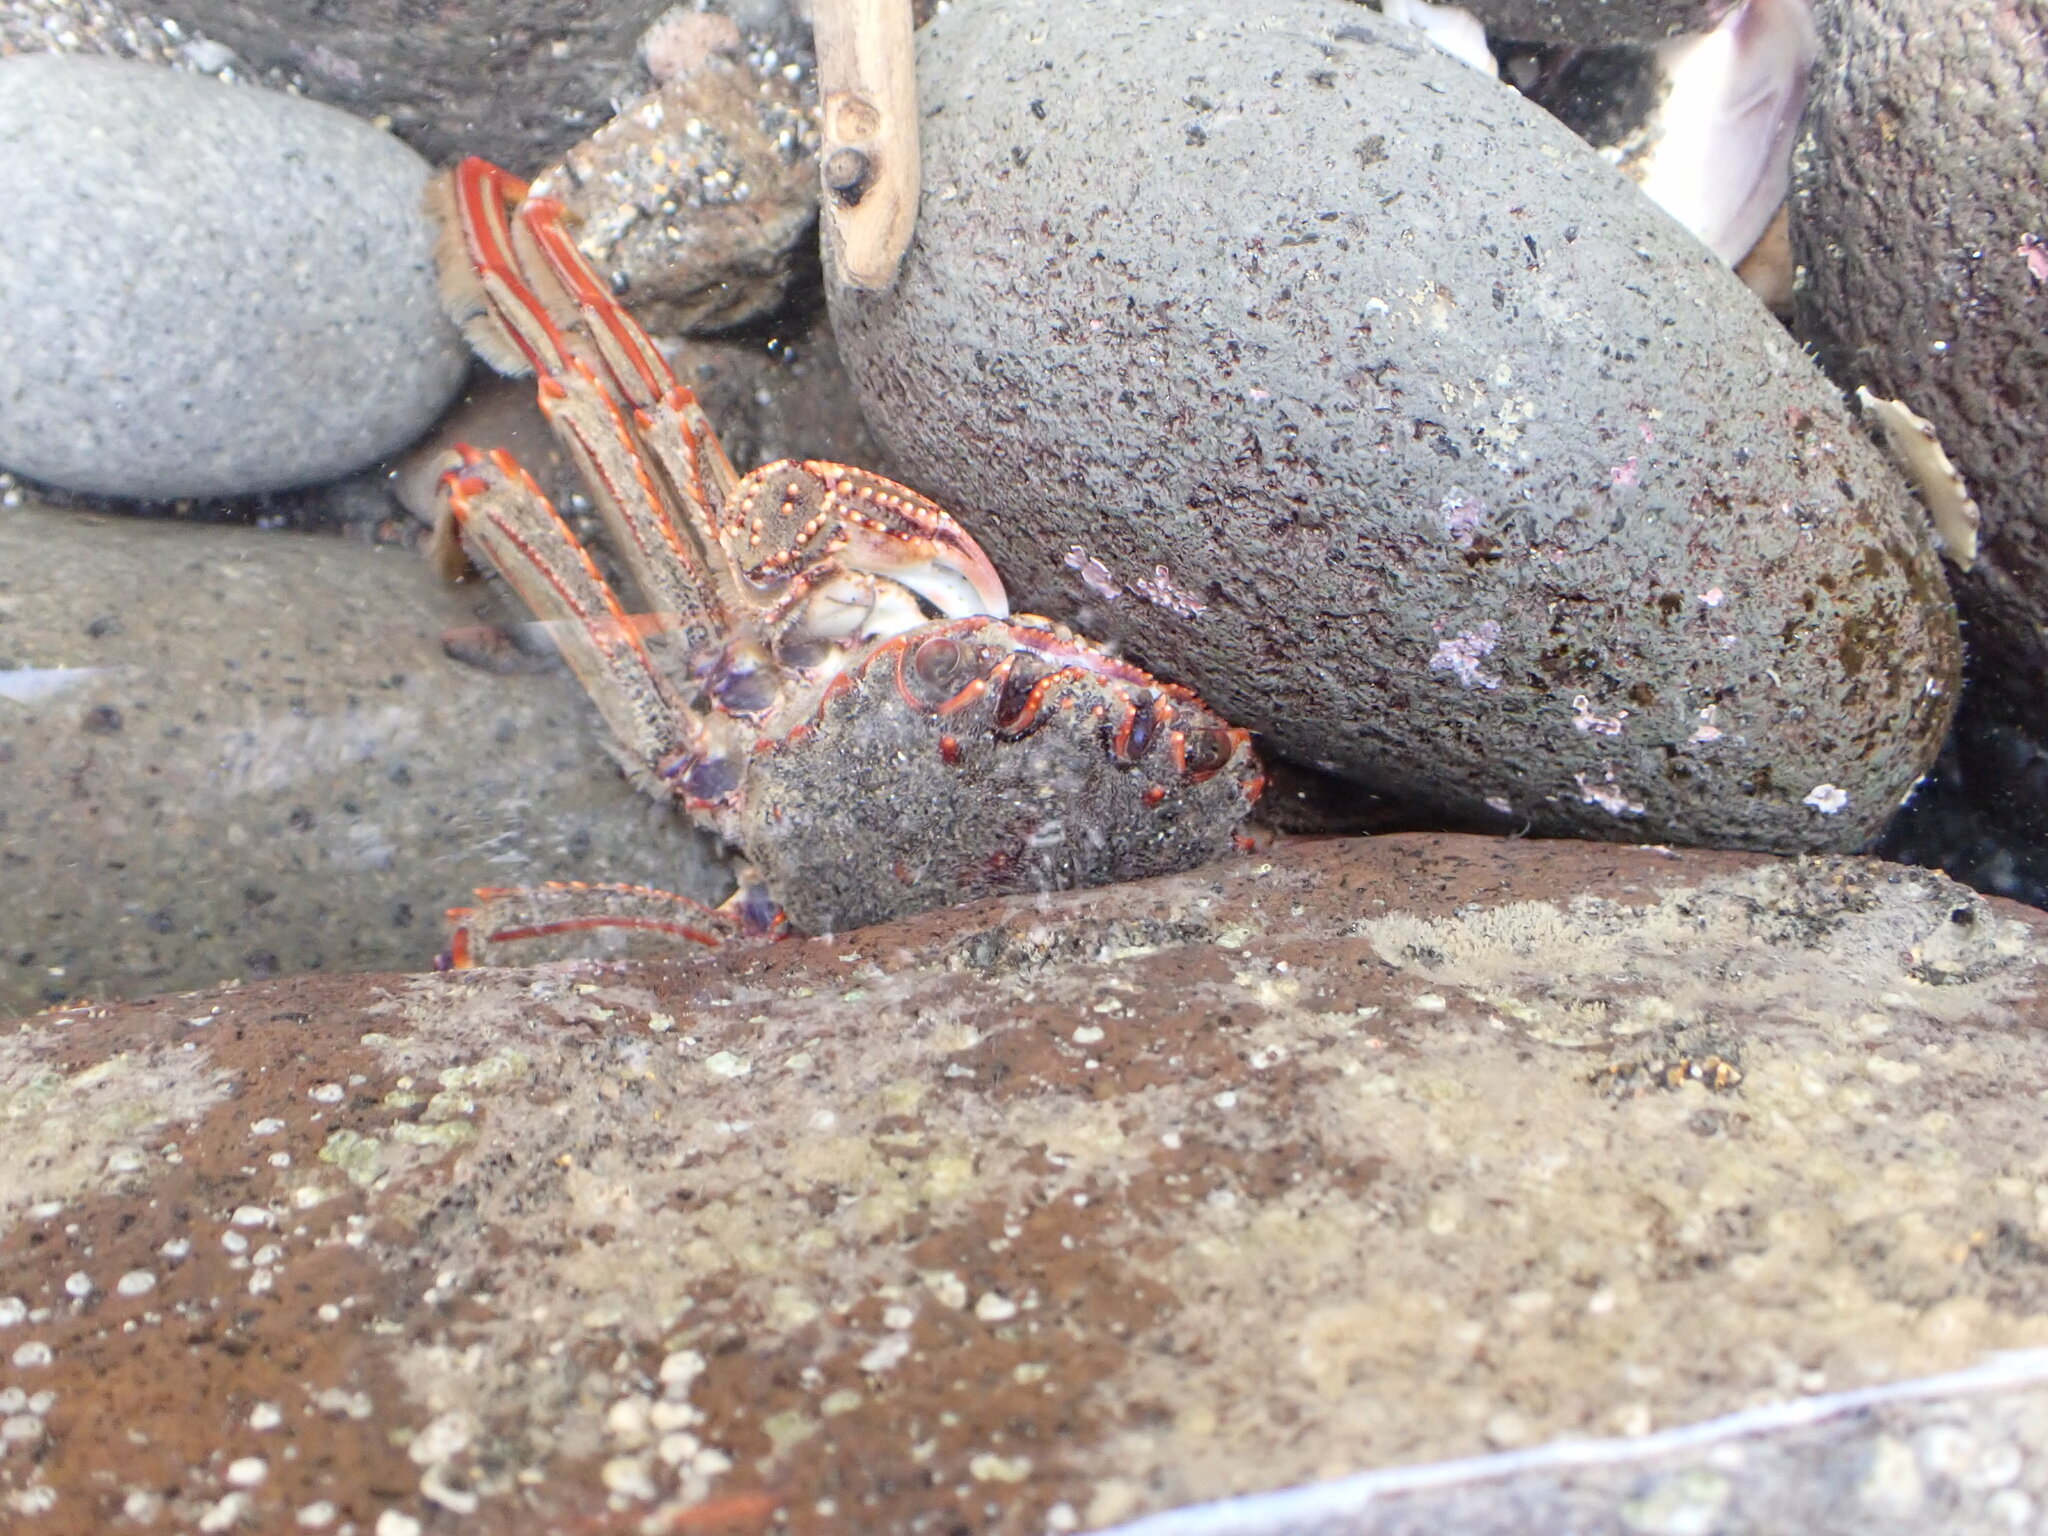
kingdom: Animalia
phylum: Arthropoda
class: Malacostraca
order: Decapoda
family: Plagusiidae
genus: Guinusia
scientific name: Guinusia chabrus
